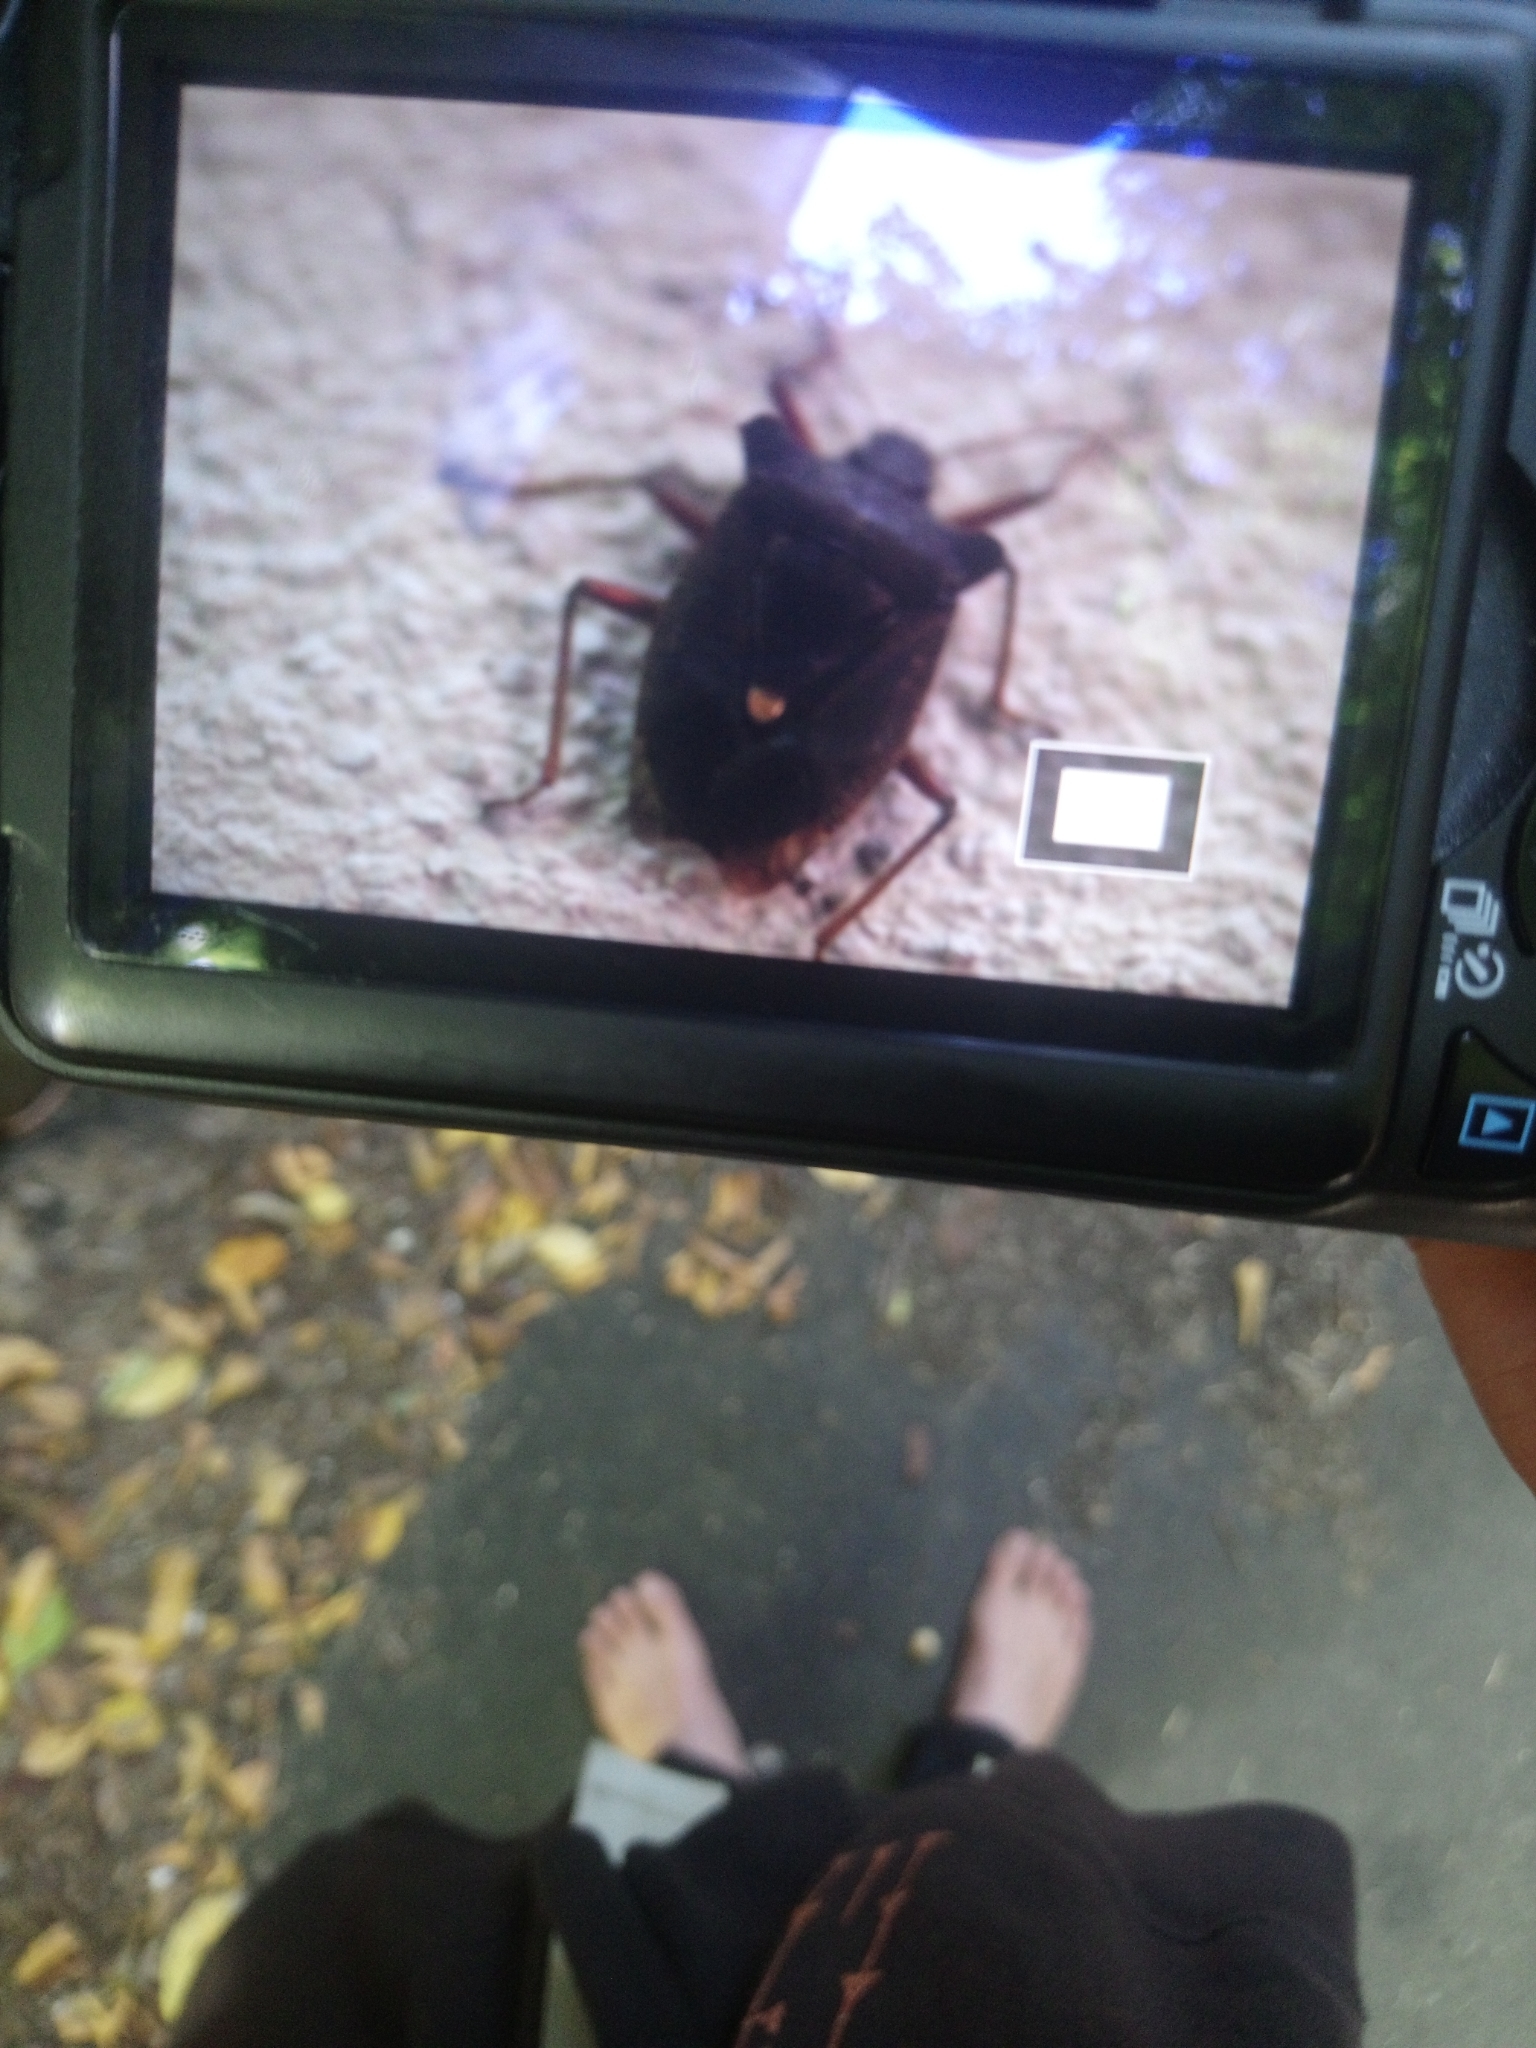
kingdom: Animalia
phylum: Arthropoda
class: Insecta
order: Hemiptera
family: Pentatomidae
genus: Pentatoma
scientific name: Pentatoma rufipes
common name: Forest bug
